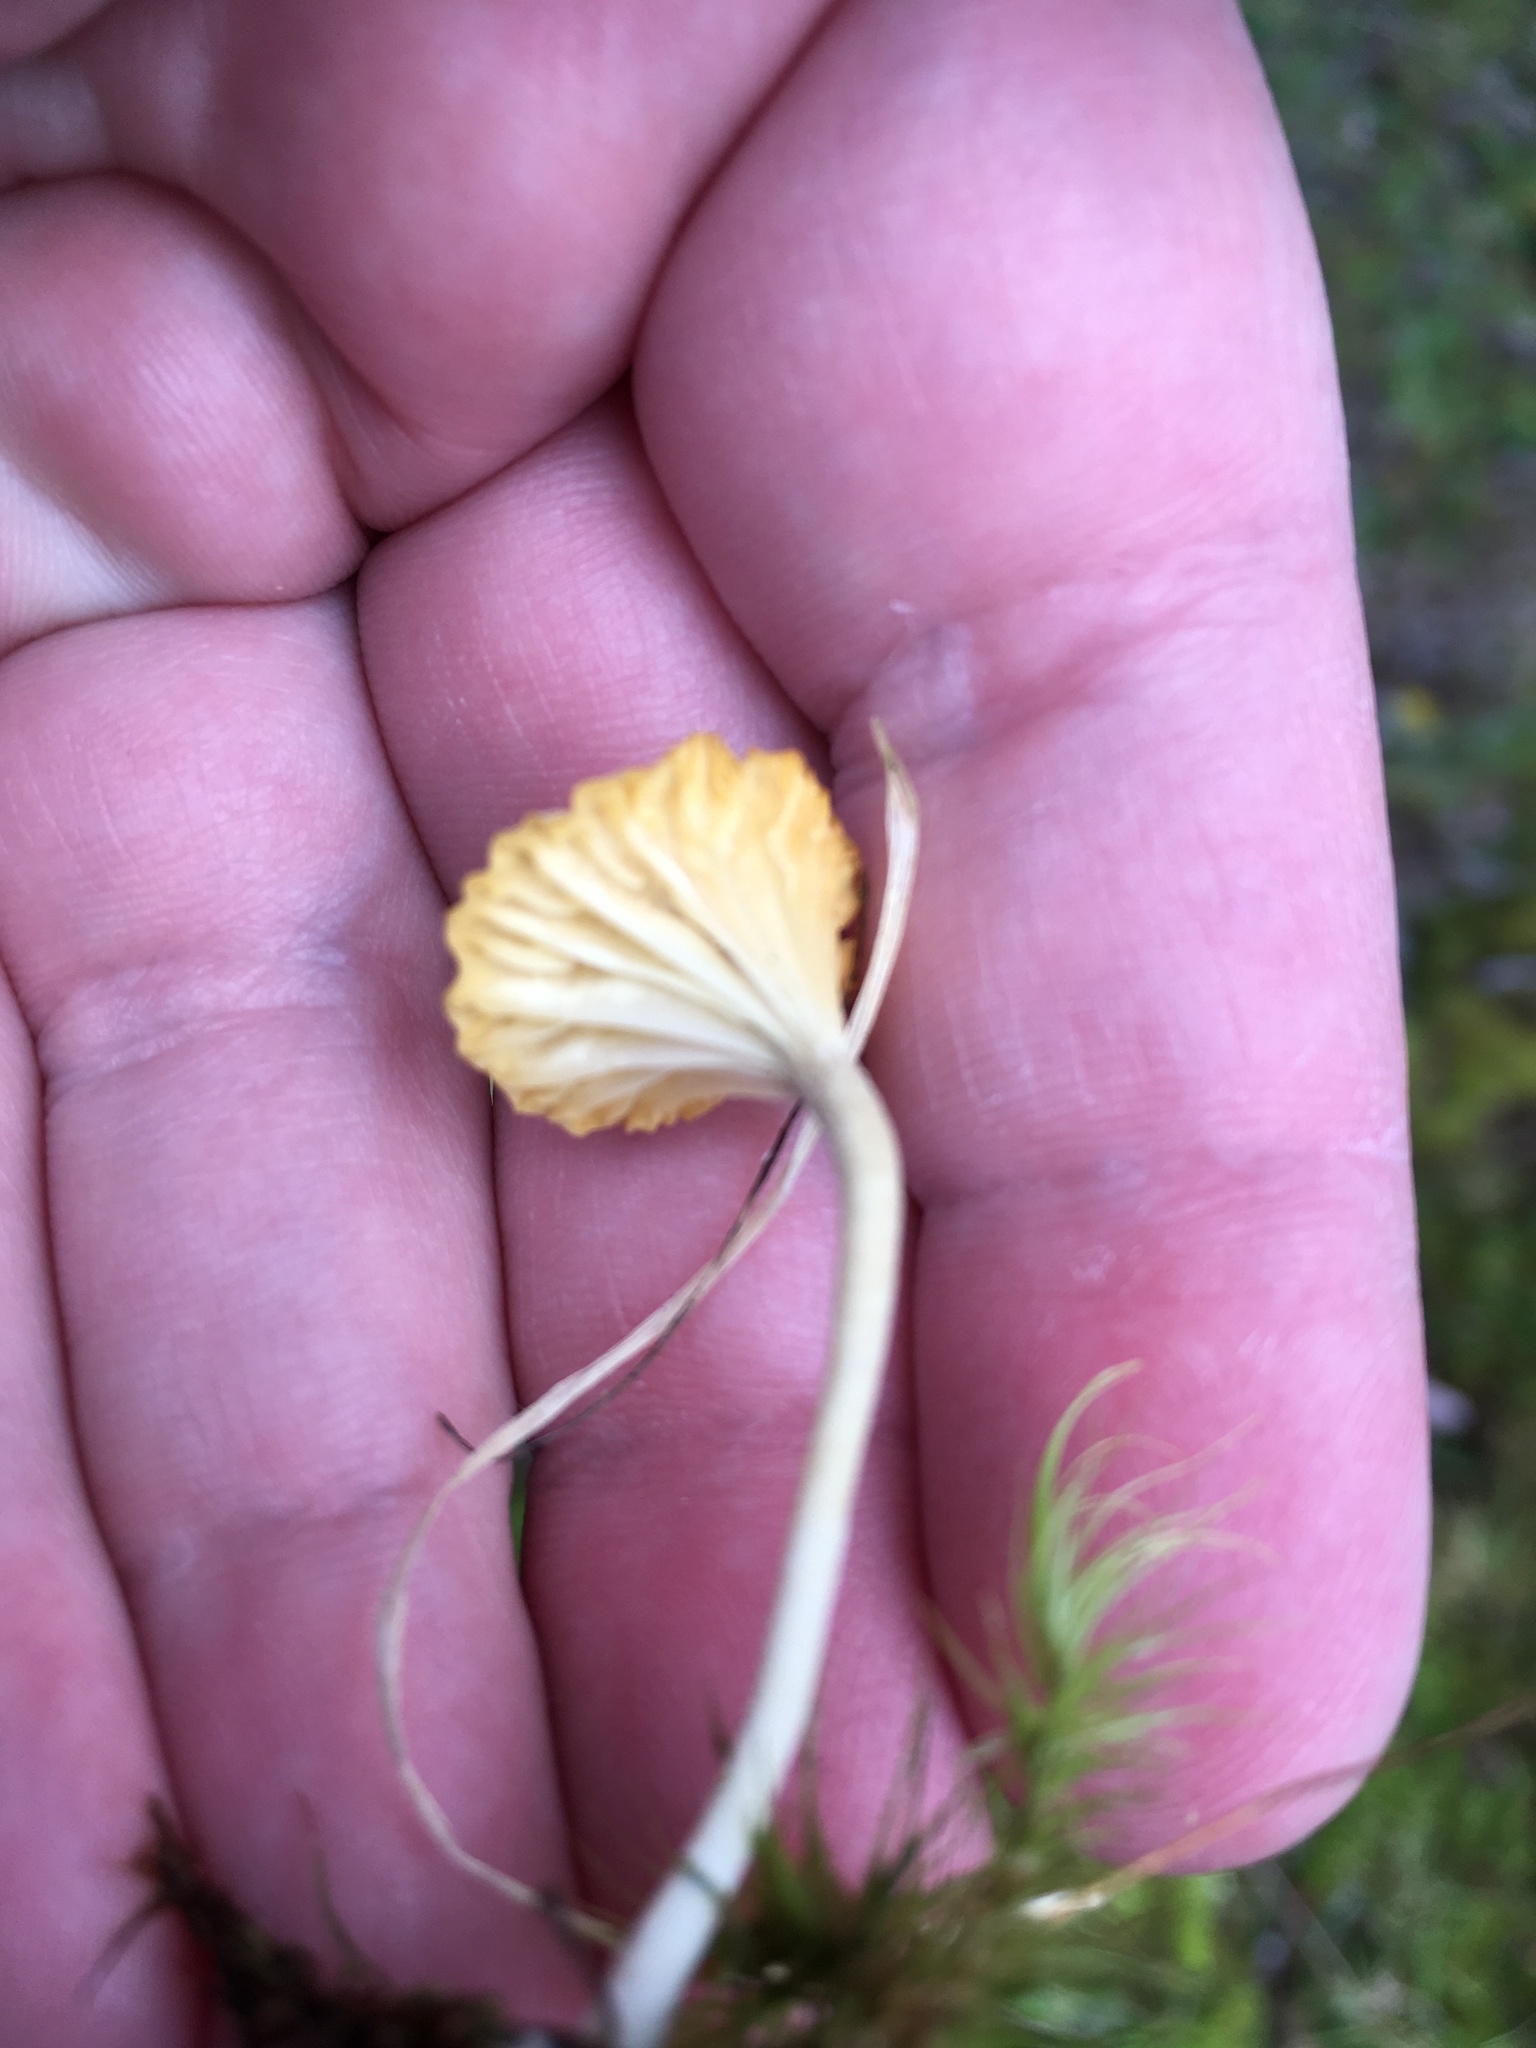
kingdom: Fungi
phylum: Basidiomycota
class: Agaricomycetes
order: Agaricales
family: Hygrophoraceae
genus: Lichenomphalia
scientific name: Lichenomphalia
